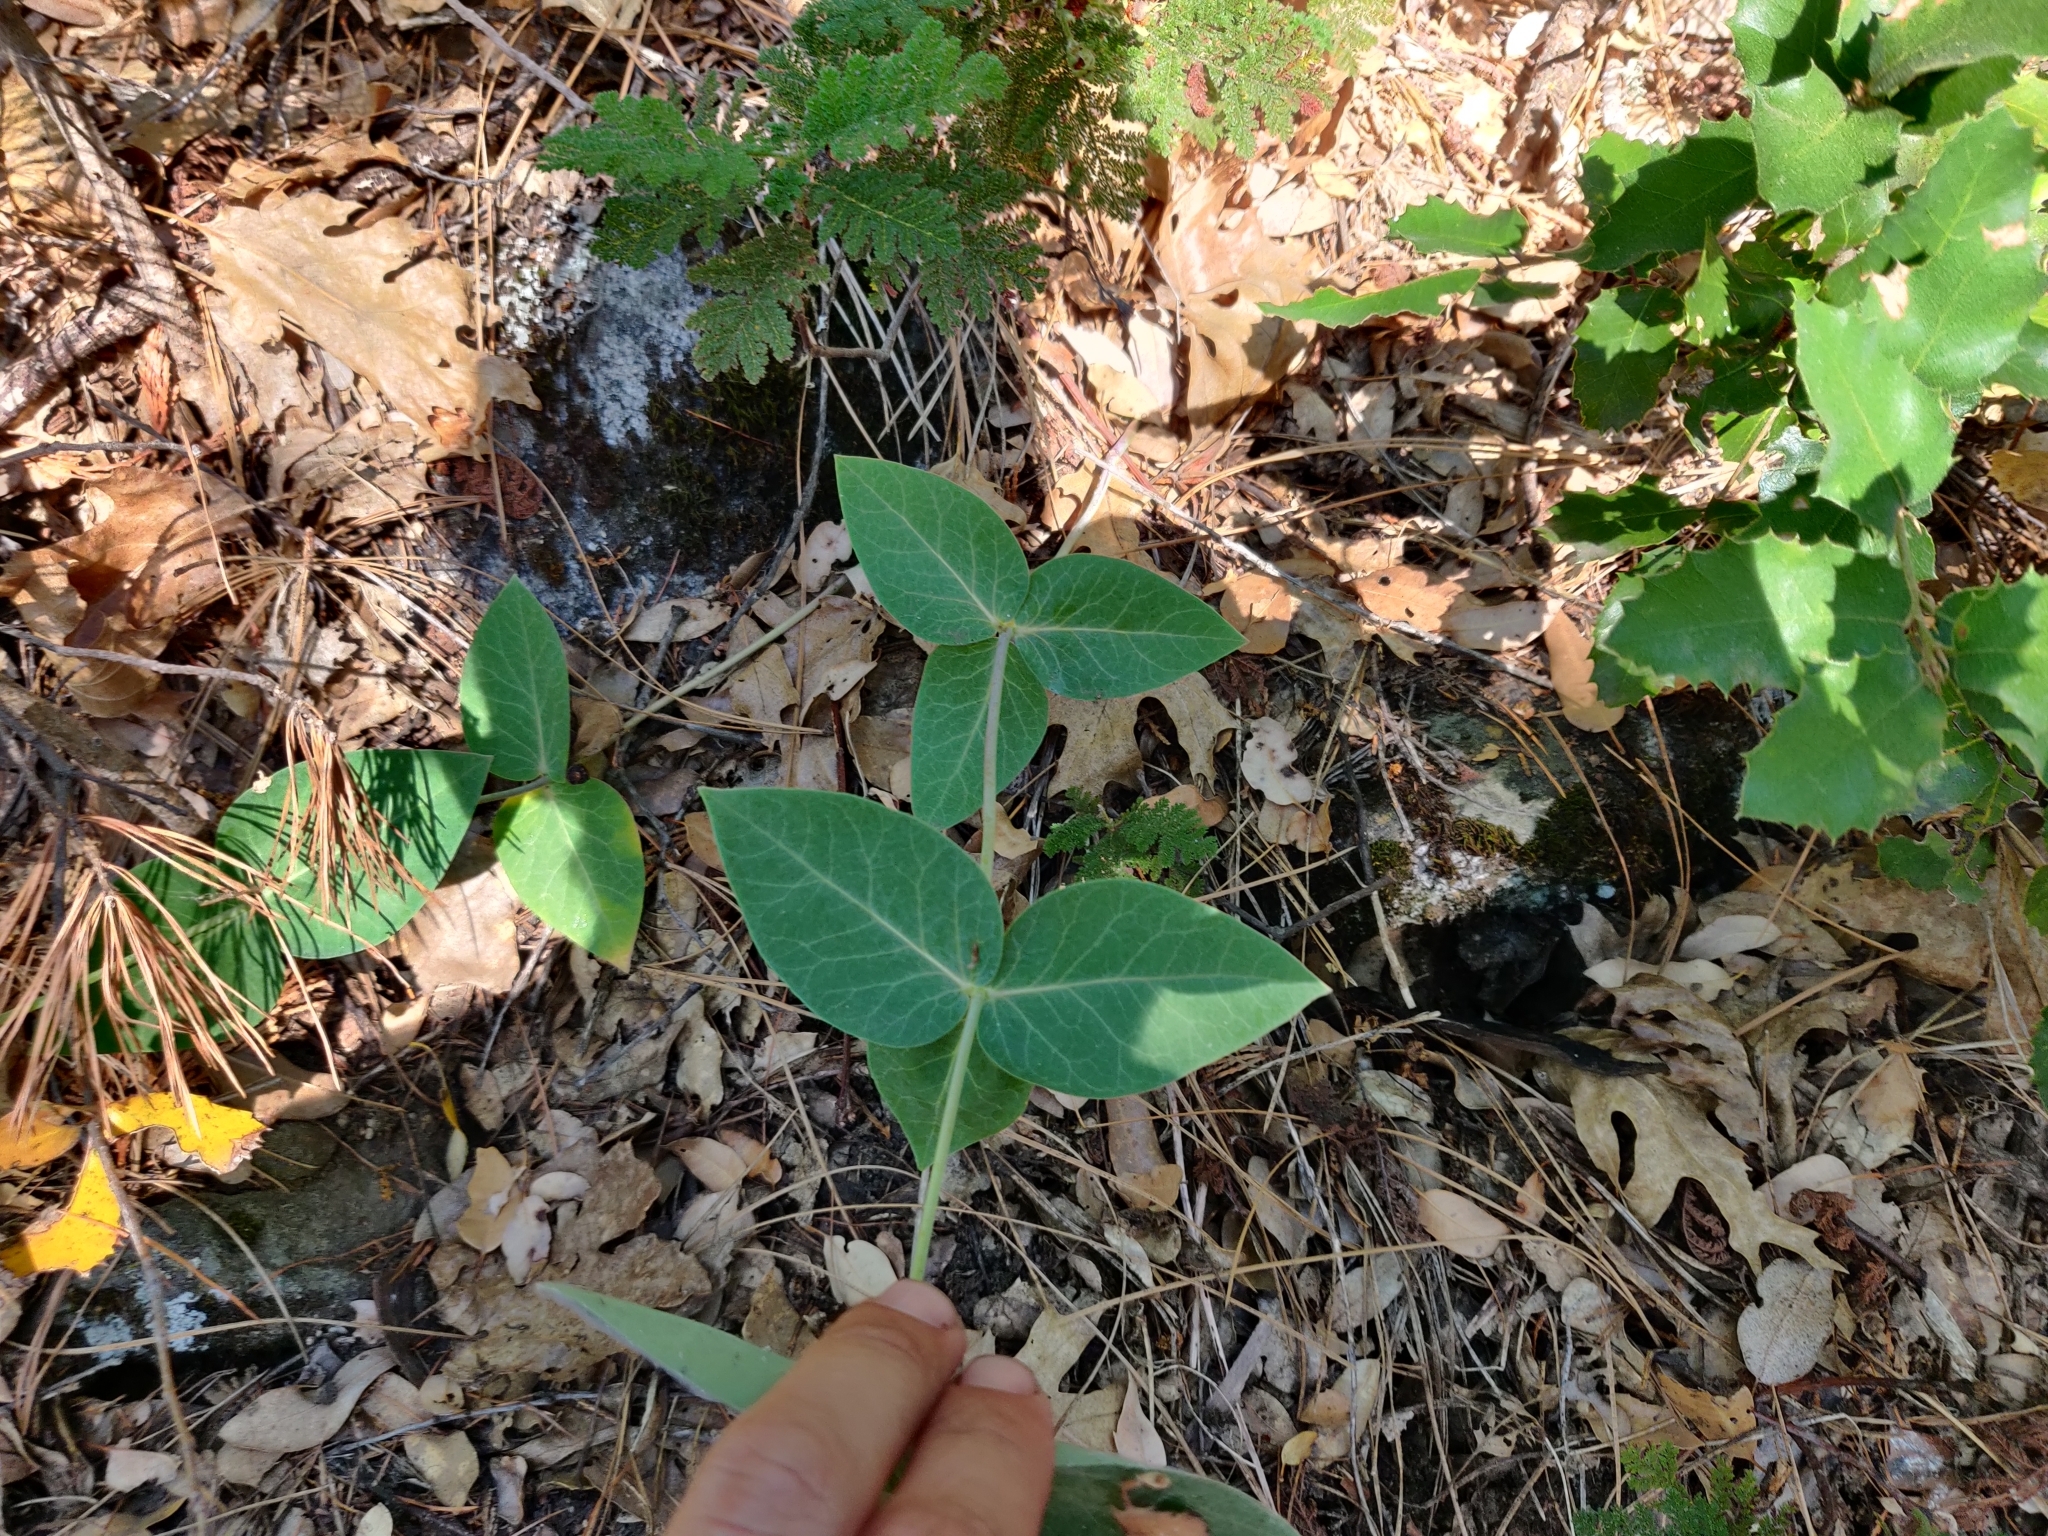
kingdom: Plantae
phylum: Tracheophyta
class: Magnoliopsida
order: Gentianales
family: Apocynaceae
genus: Asclepias
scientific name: Asclepias cordifolia
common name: Purple milkweed
